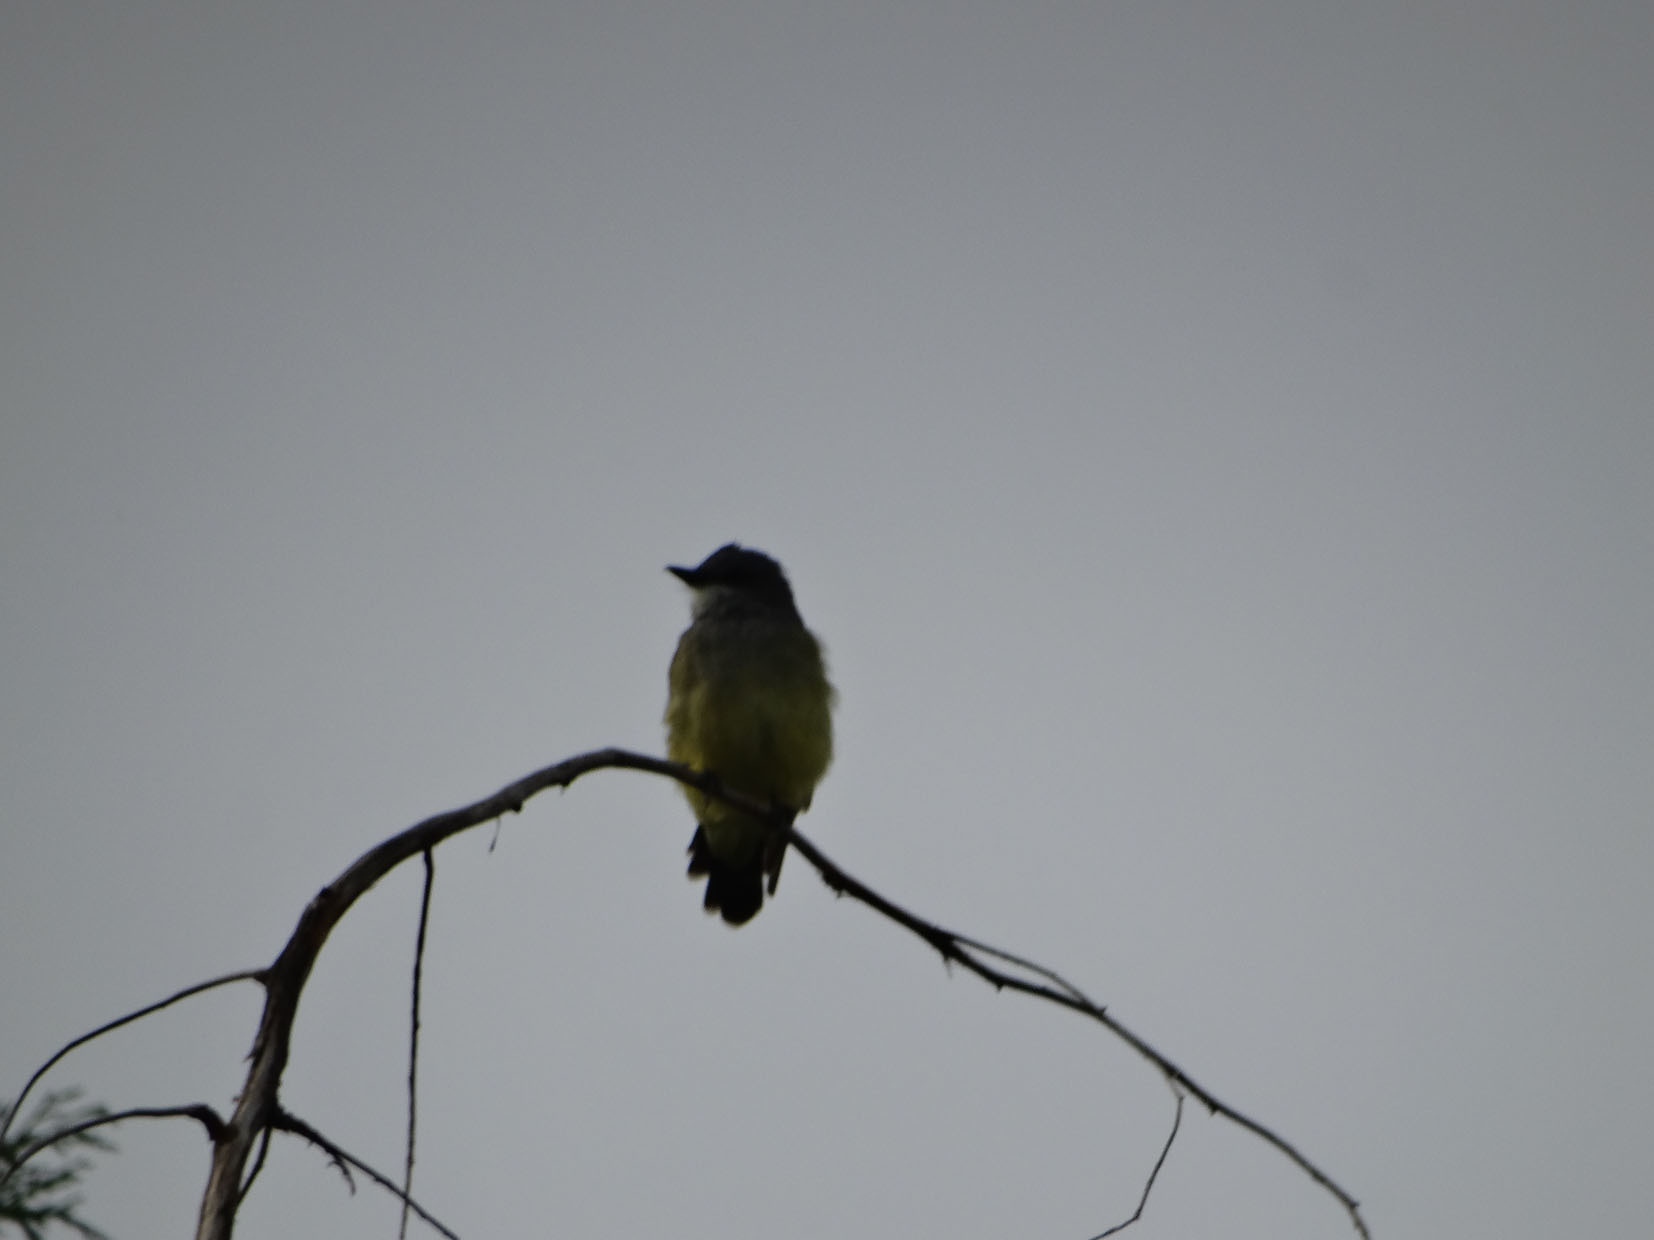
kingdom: Animalia
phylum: Chordata
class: Aves
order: Passeriformes
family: Tyrannidae
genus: Tyrannus
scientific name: Tyrannus vociferans
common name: Cassin's kingbird
